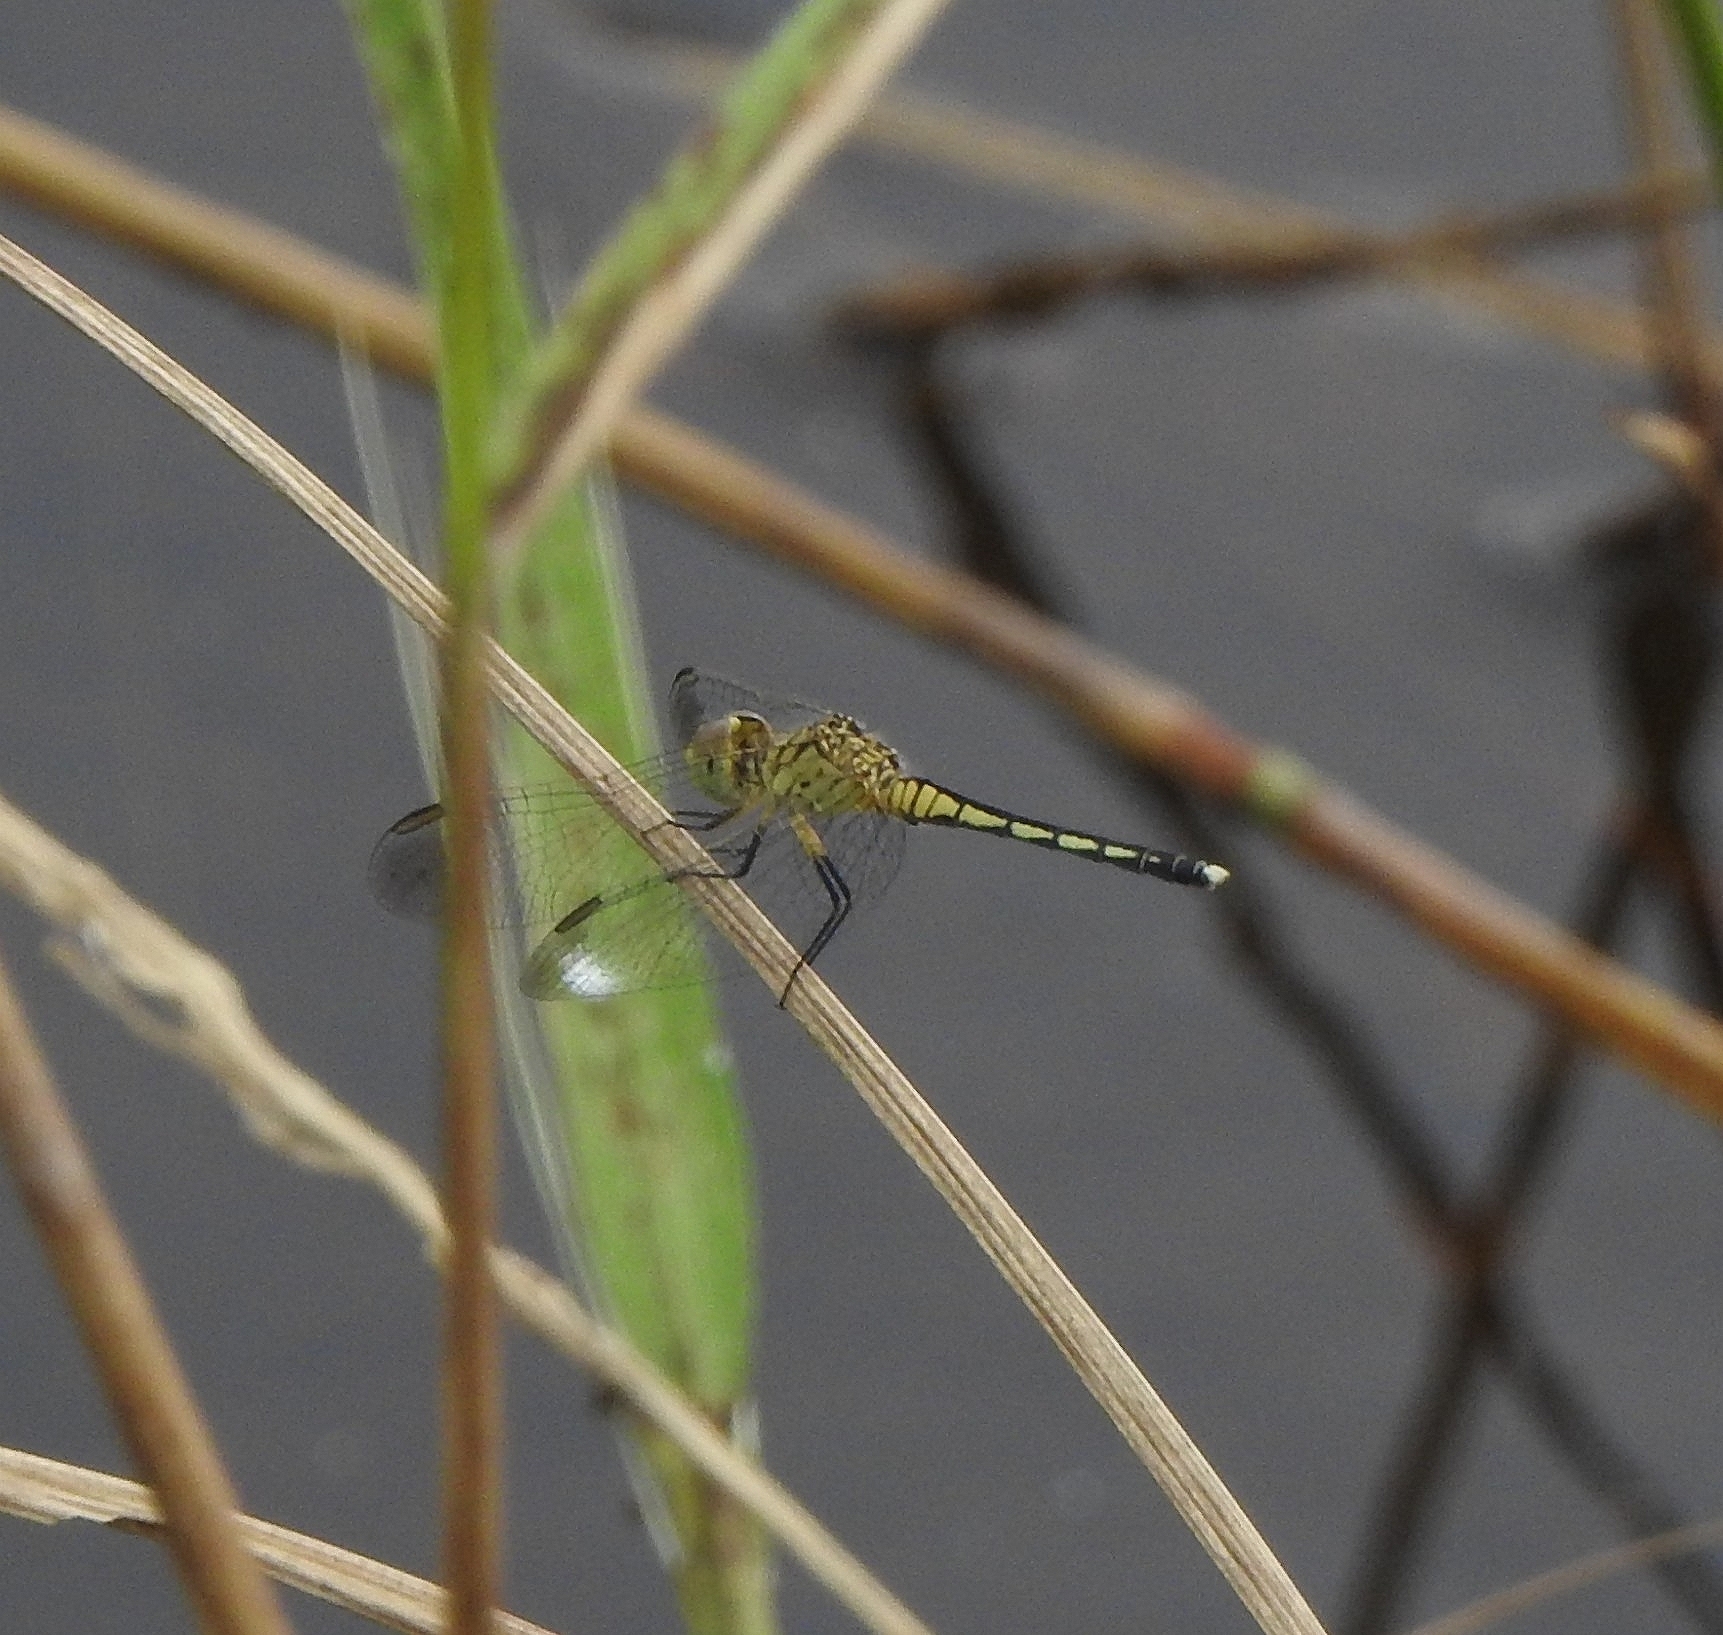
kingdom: Animalia
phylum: Arthropoda
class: Insecta
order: Odonata
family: Libellulidae
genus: Diplacodes
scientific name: Diplacodes nebulosa
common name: Black-tipped percher
